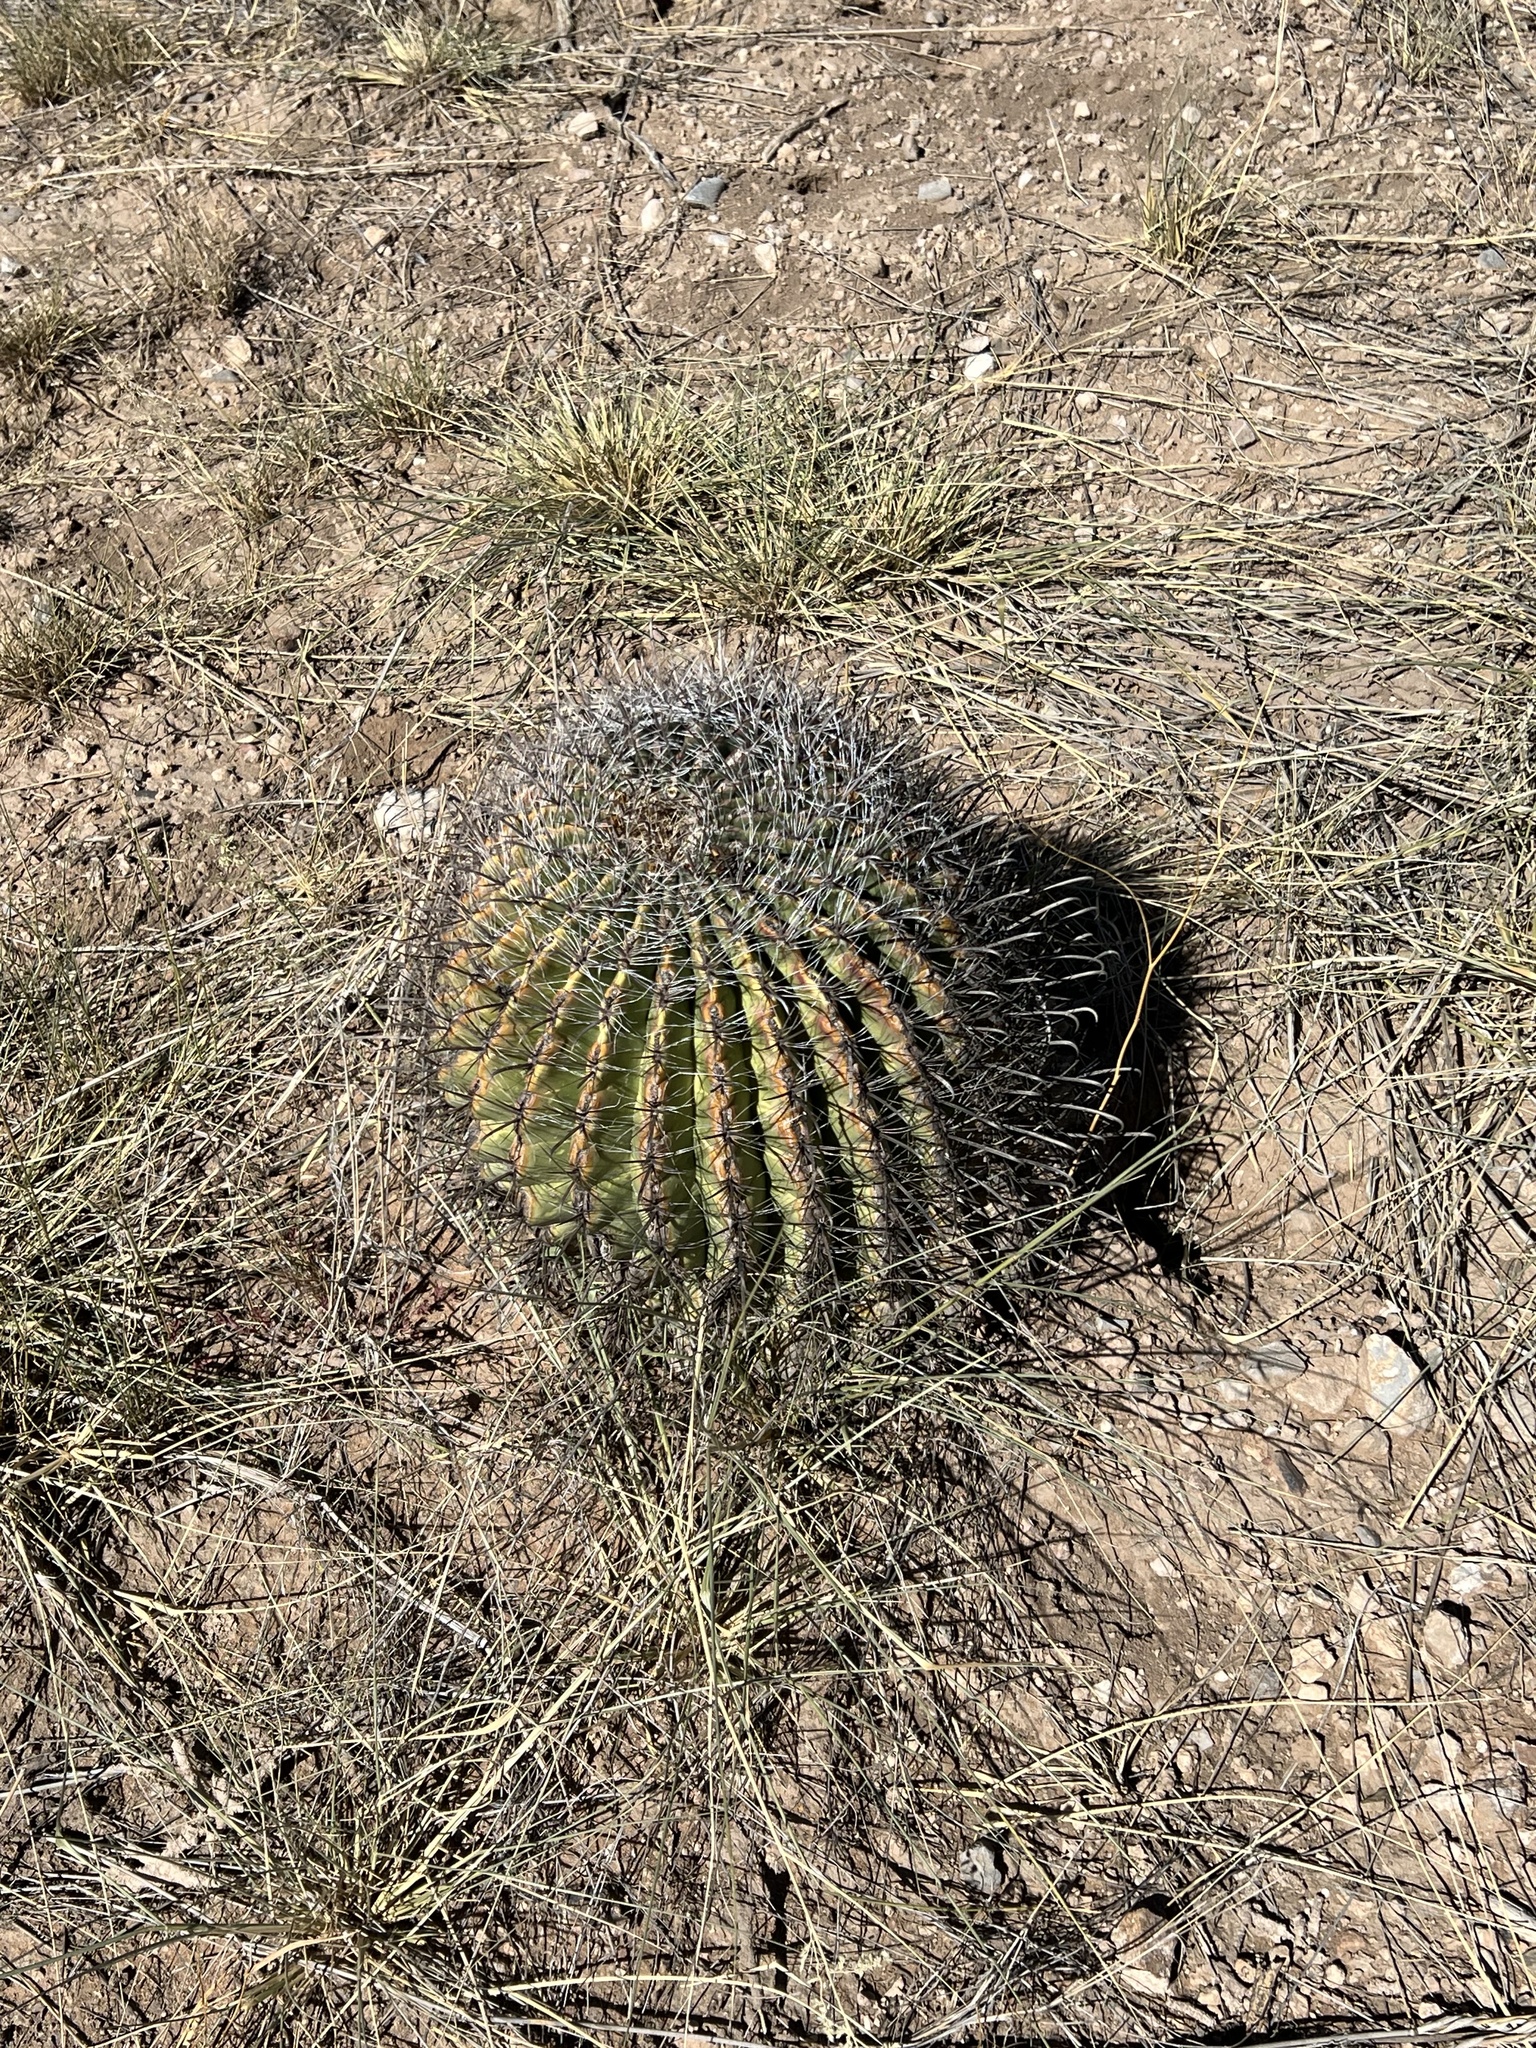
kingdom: Plantae
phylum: Tracheophyta
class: Magnoliopsida
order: Caryophyllales
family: Cactaceae
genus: Ferocactus
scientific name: Ferocactus wislizeni
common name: Candy barrel cactus
